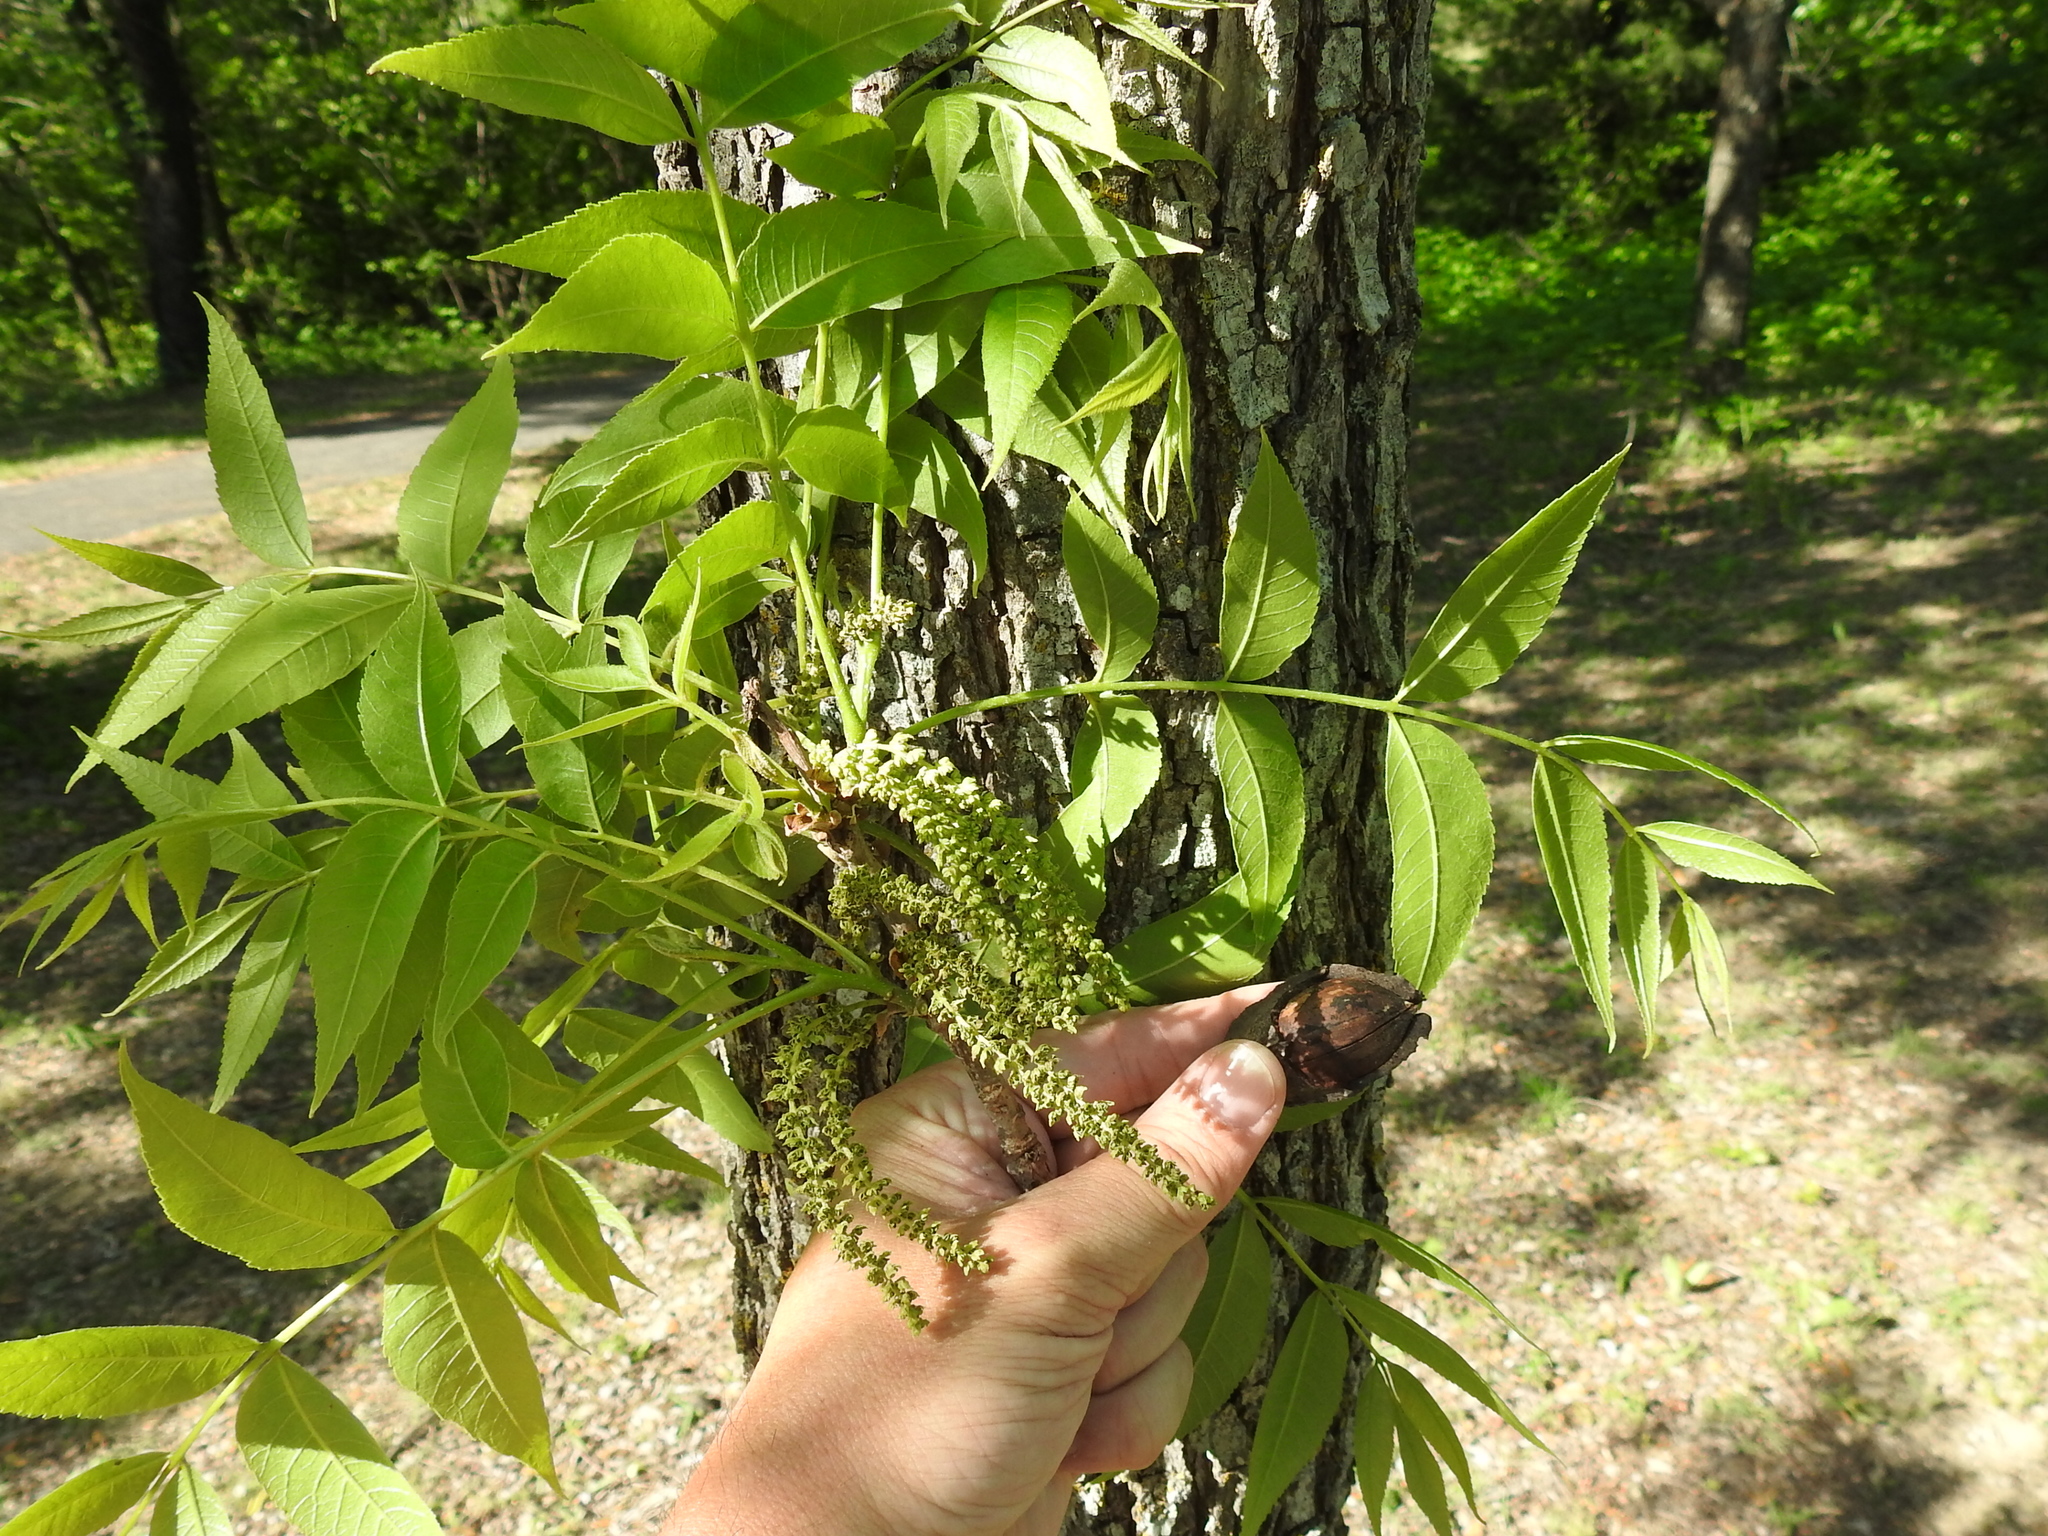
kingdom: Plantae
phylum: Tracheophyta
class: Magnoliopsida
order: Fagales
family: Juglandaceae
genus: Carya
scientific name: Carya illinoinensis
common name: Pecan
